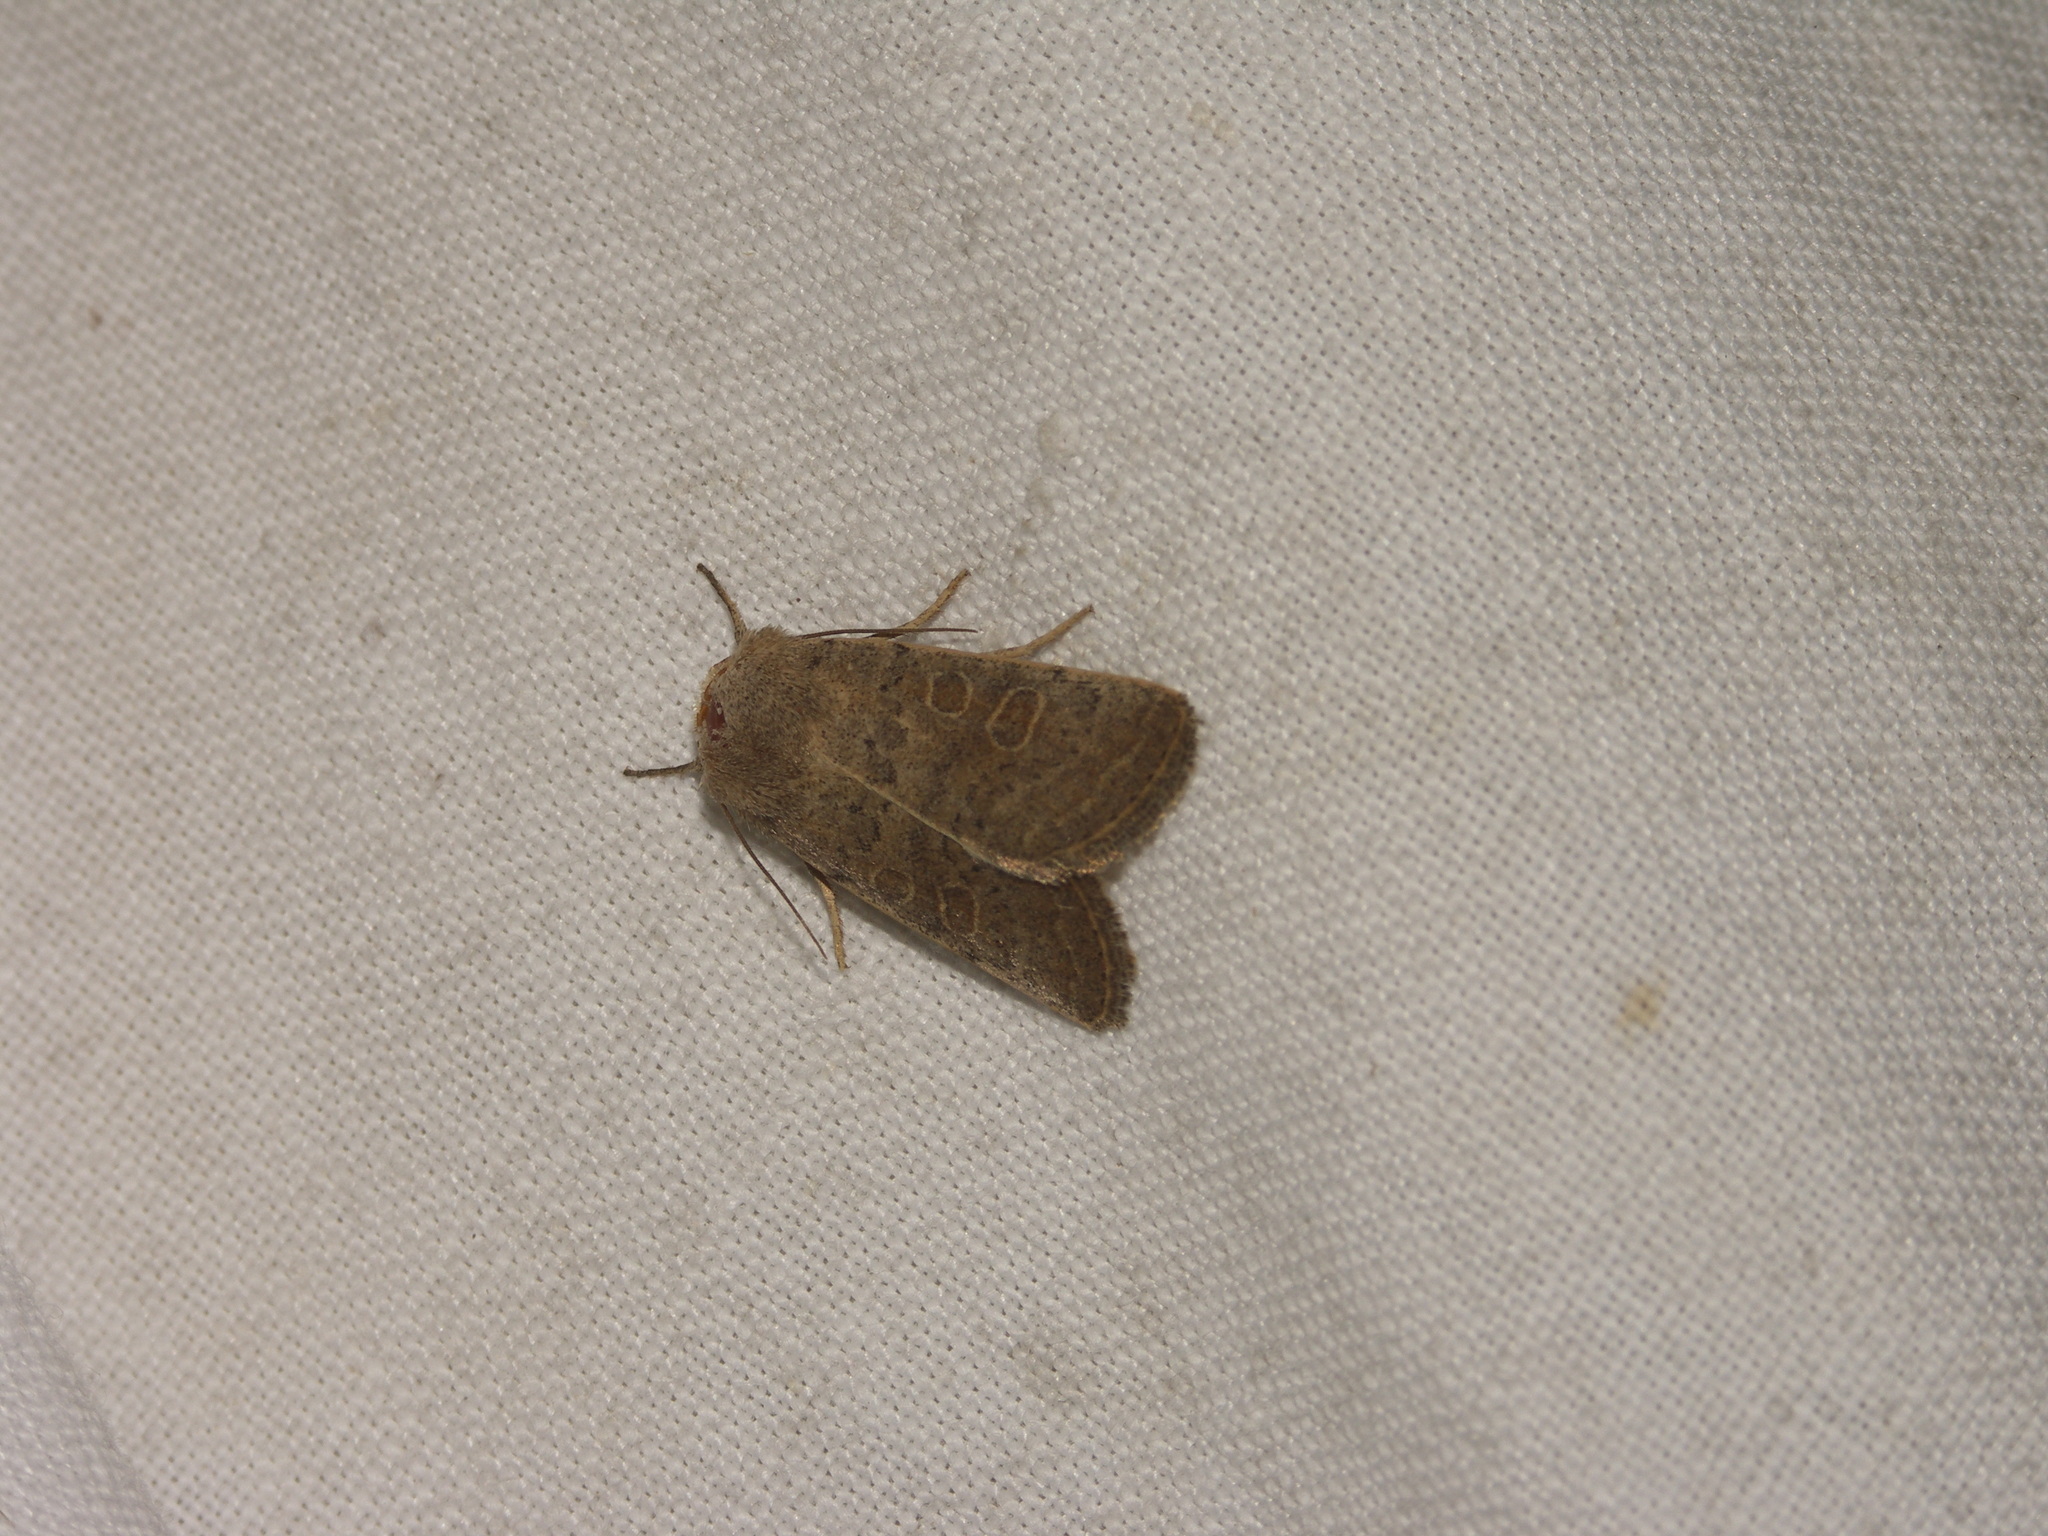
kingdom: Animalia
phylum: Arthropoda
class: Insecta
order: Lepidoptera
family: Noctuidae
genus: Hoplodrina
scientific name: Hoplodrina ambigua
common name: Vine's rustic
